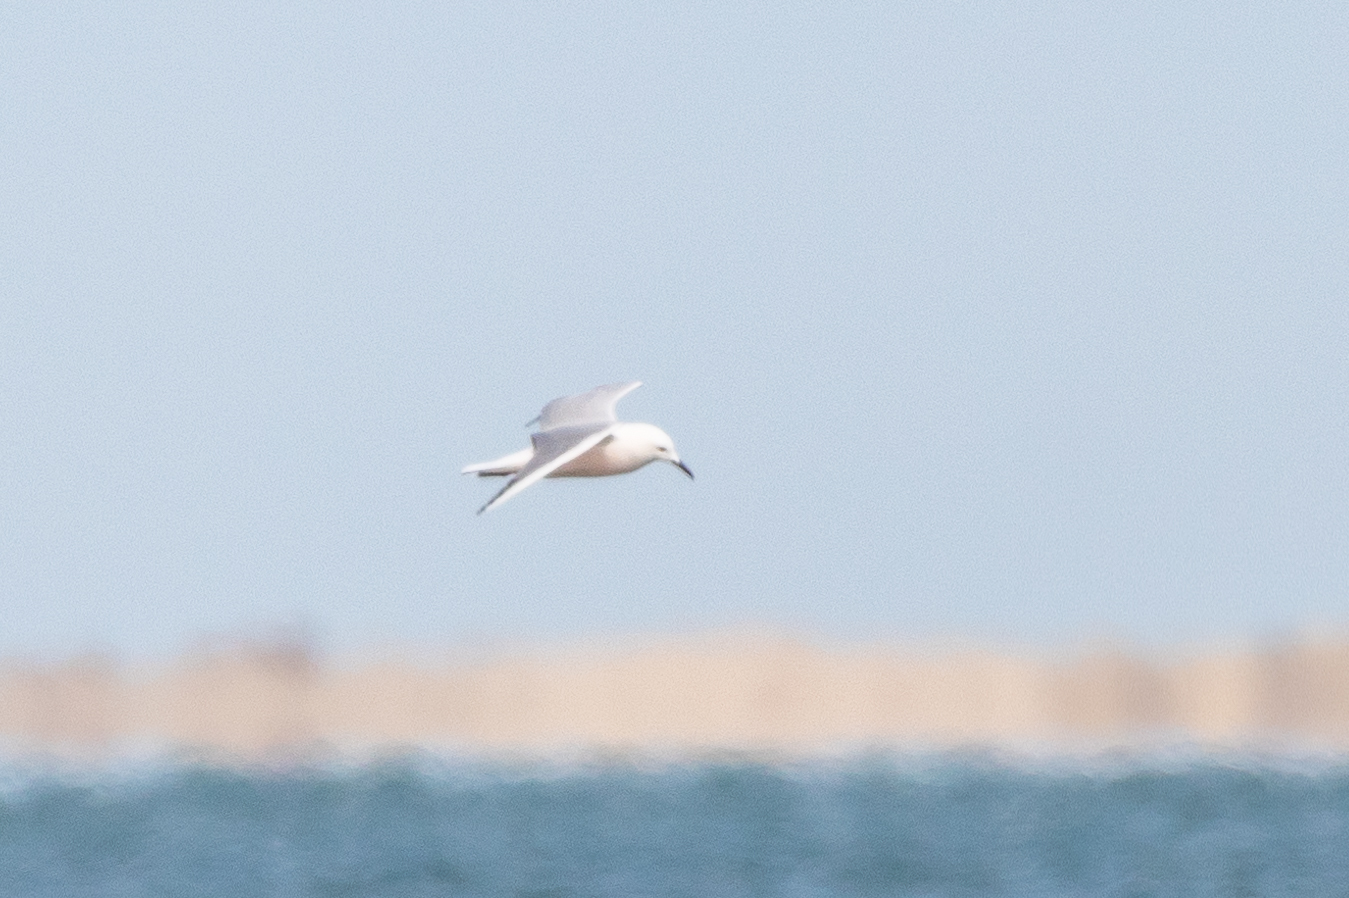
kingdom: Animalia
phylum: Chordata
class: Aves
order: Charadriiformes
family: Laridae
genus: Chroicocephalus
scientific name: Chroicocephalus genei
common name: Slender-billed gull
